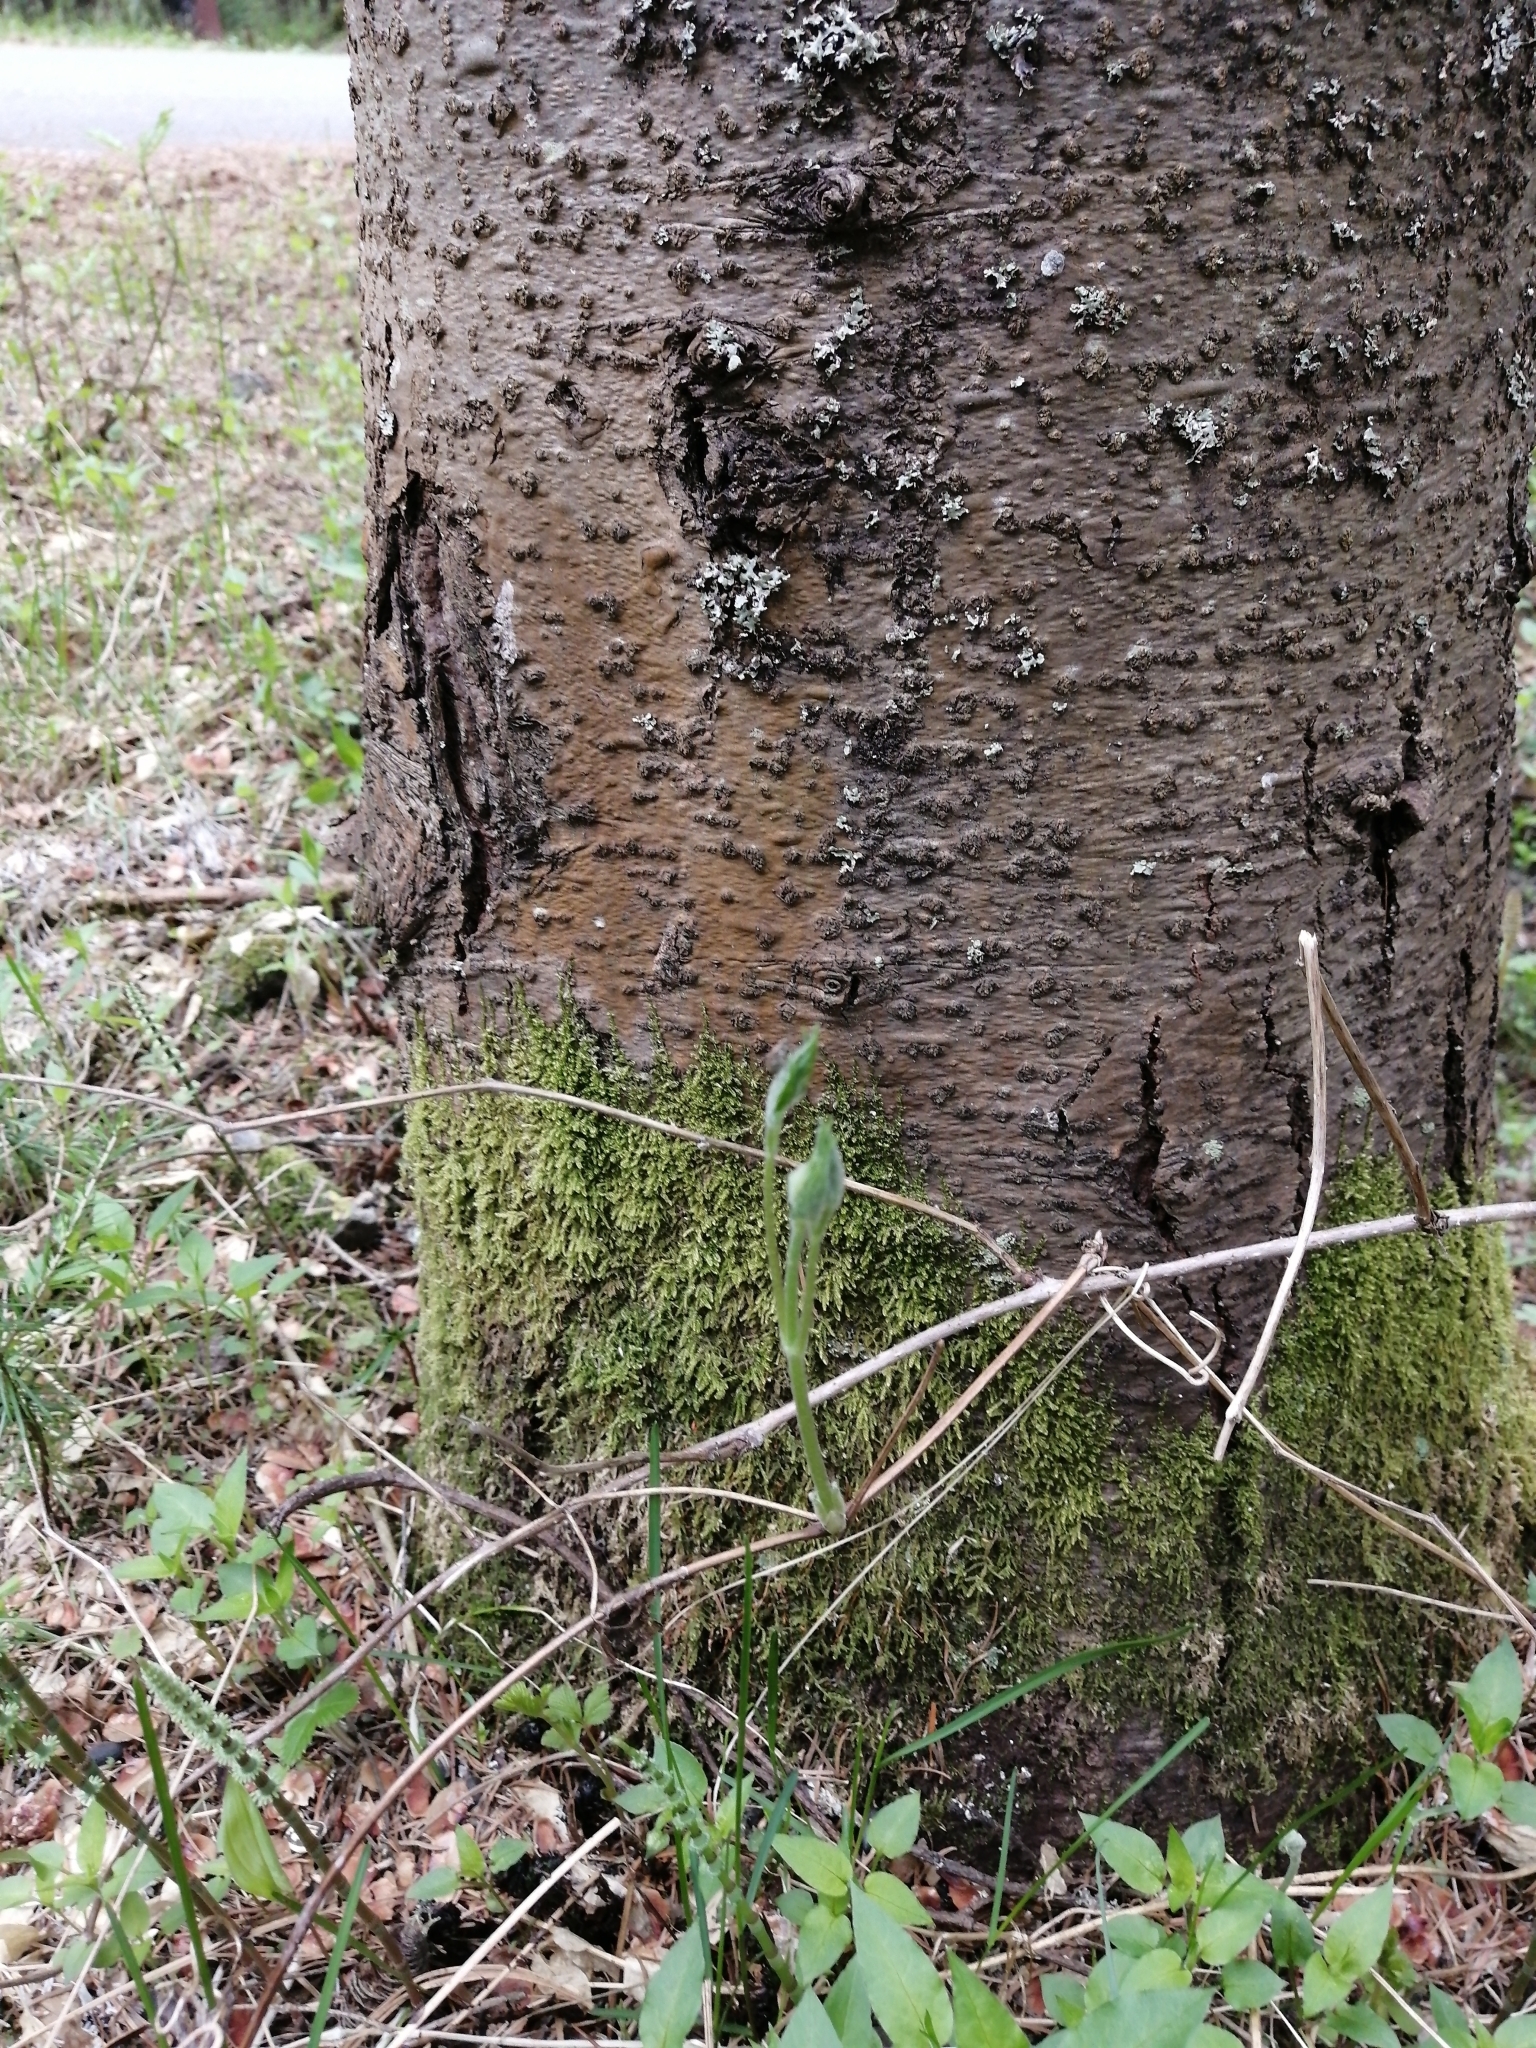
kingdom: Plantae
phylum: Tracheophyta
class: Magnoliopsida
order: Ranunculales
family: Ranunculaceae
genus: Clematis
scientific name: Clematis sibirica
